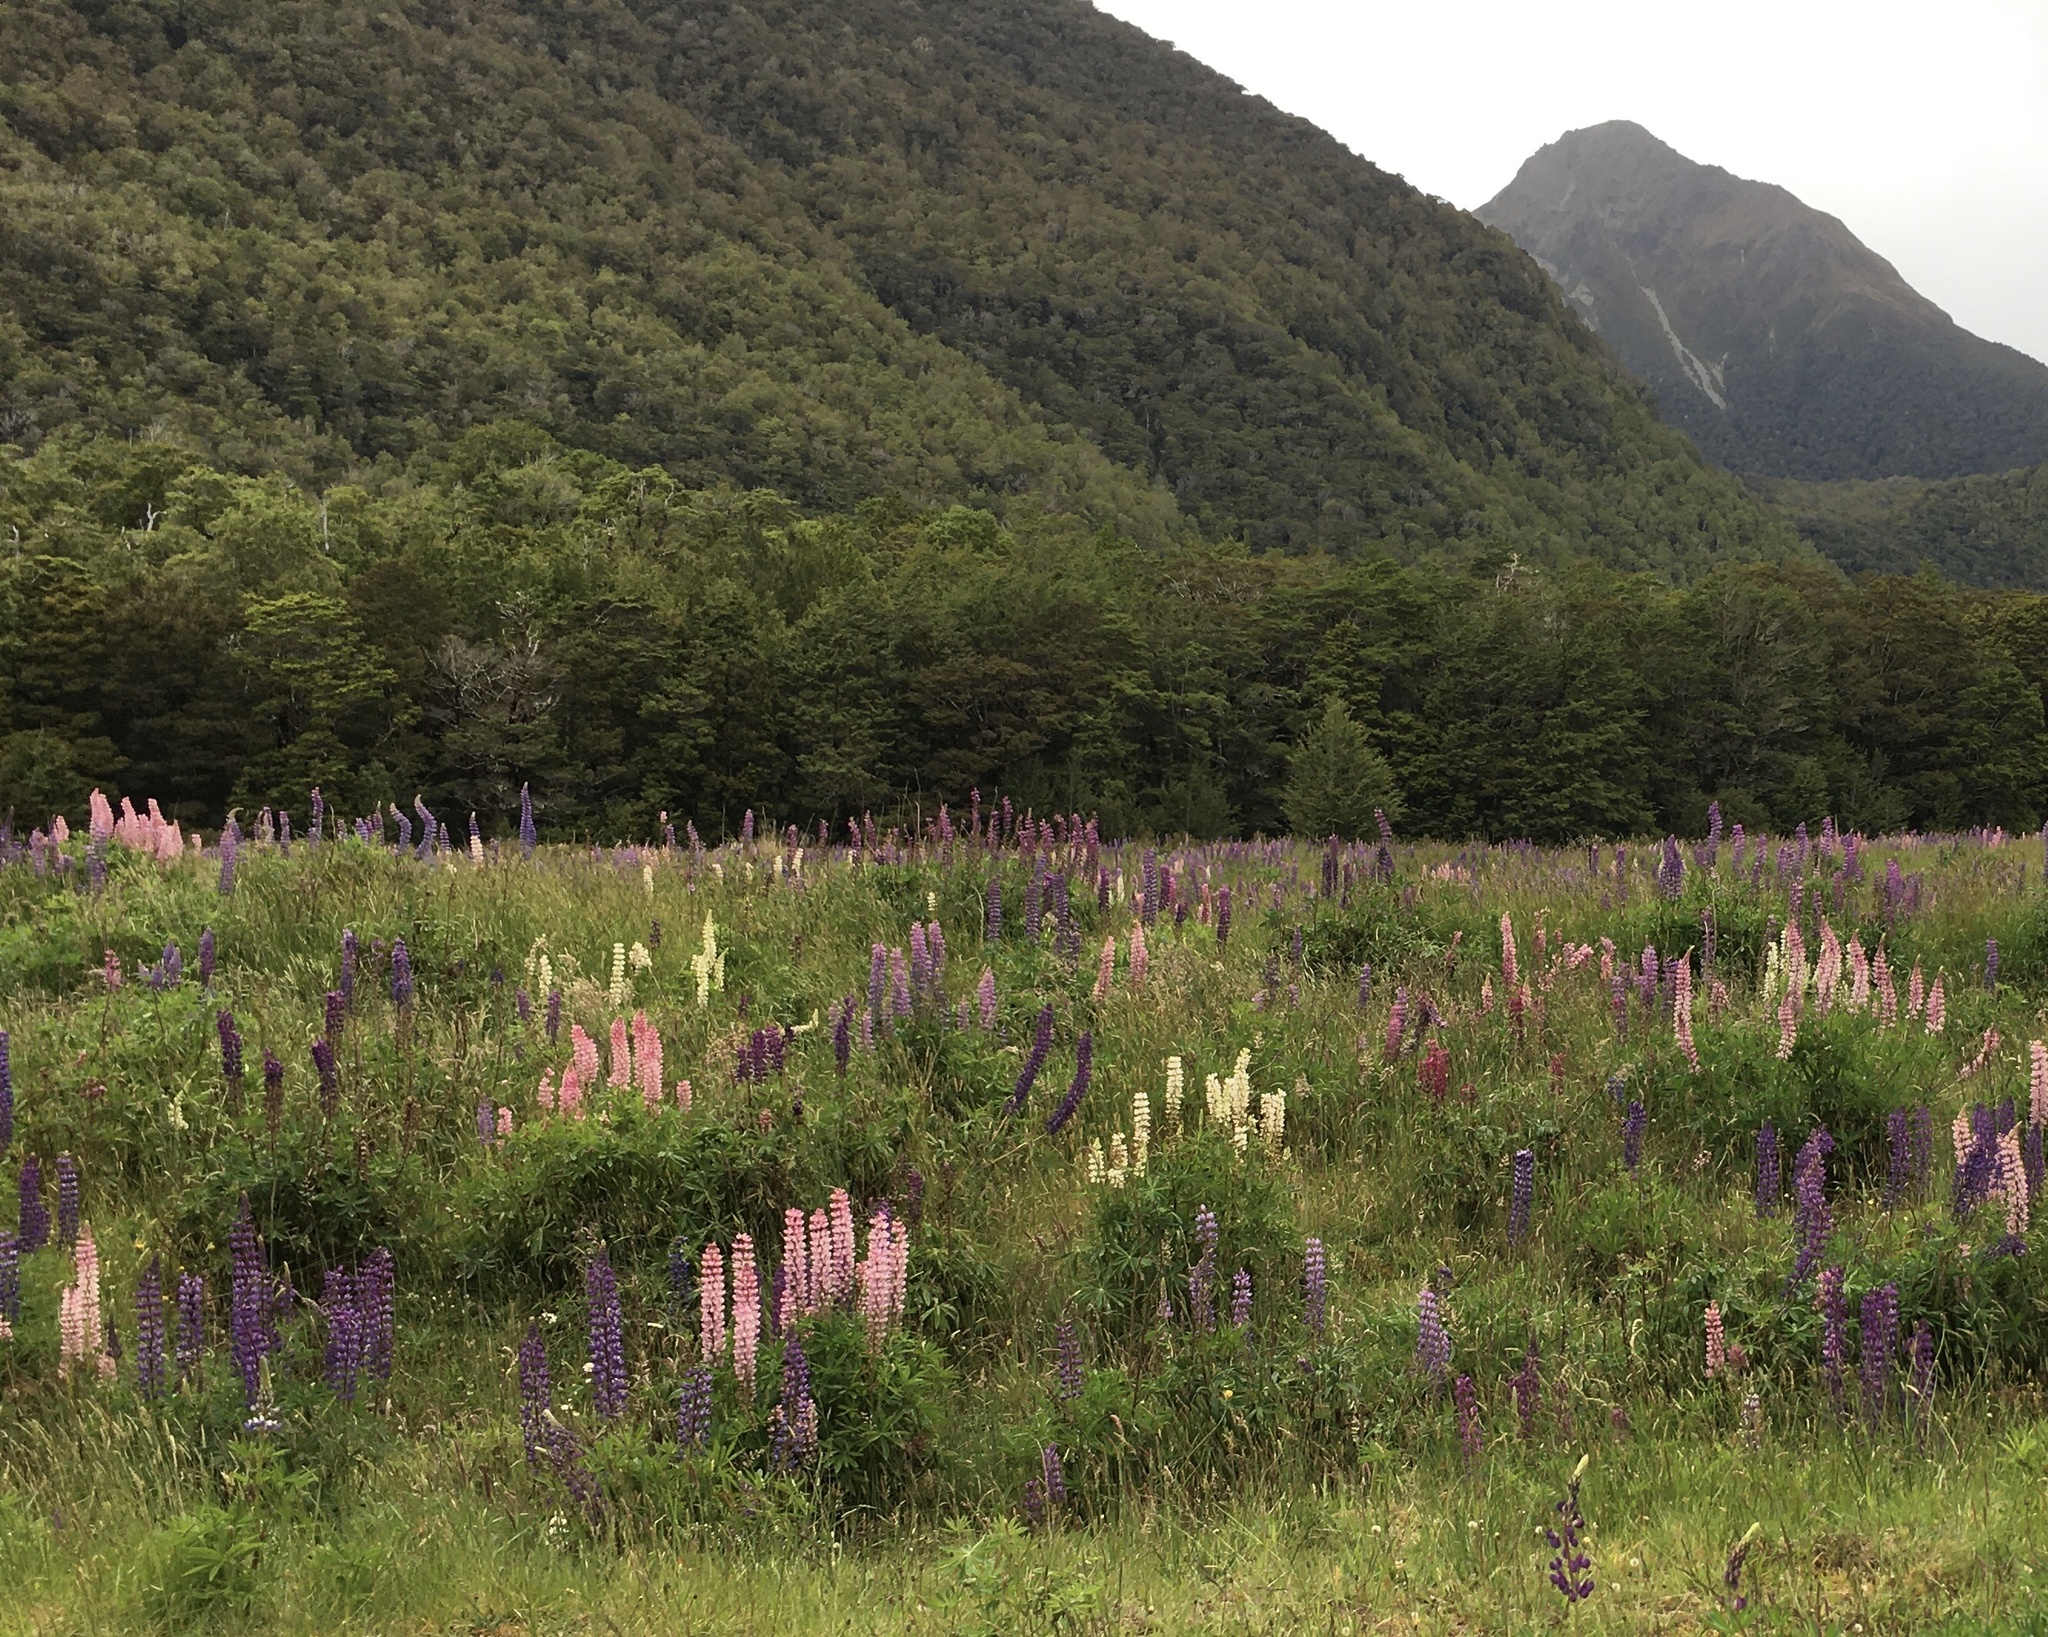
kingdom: Plantae
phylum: Tracheophyta
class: Magnoliopsida
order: Fabales
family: Fabaceae
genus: Lupinus
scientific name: Lupinus polyphyllus
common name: Garden lupin
